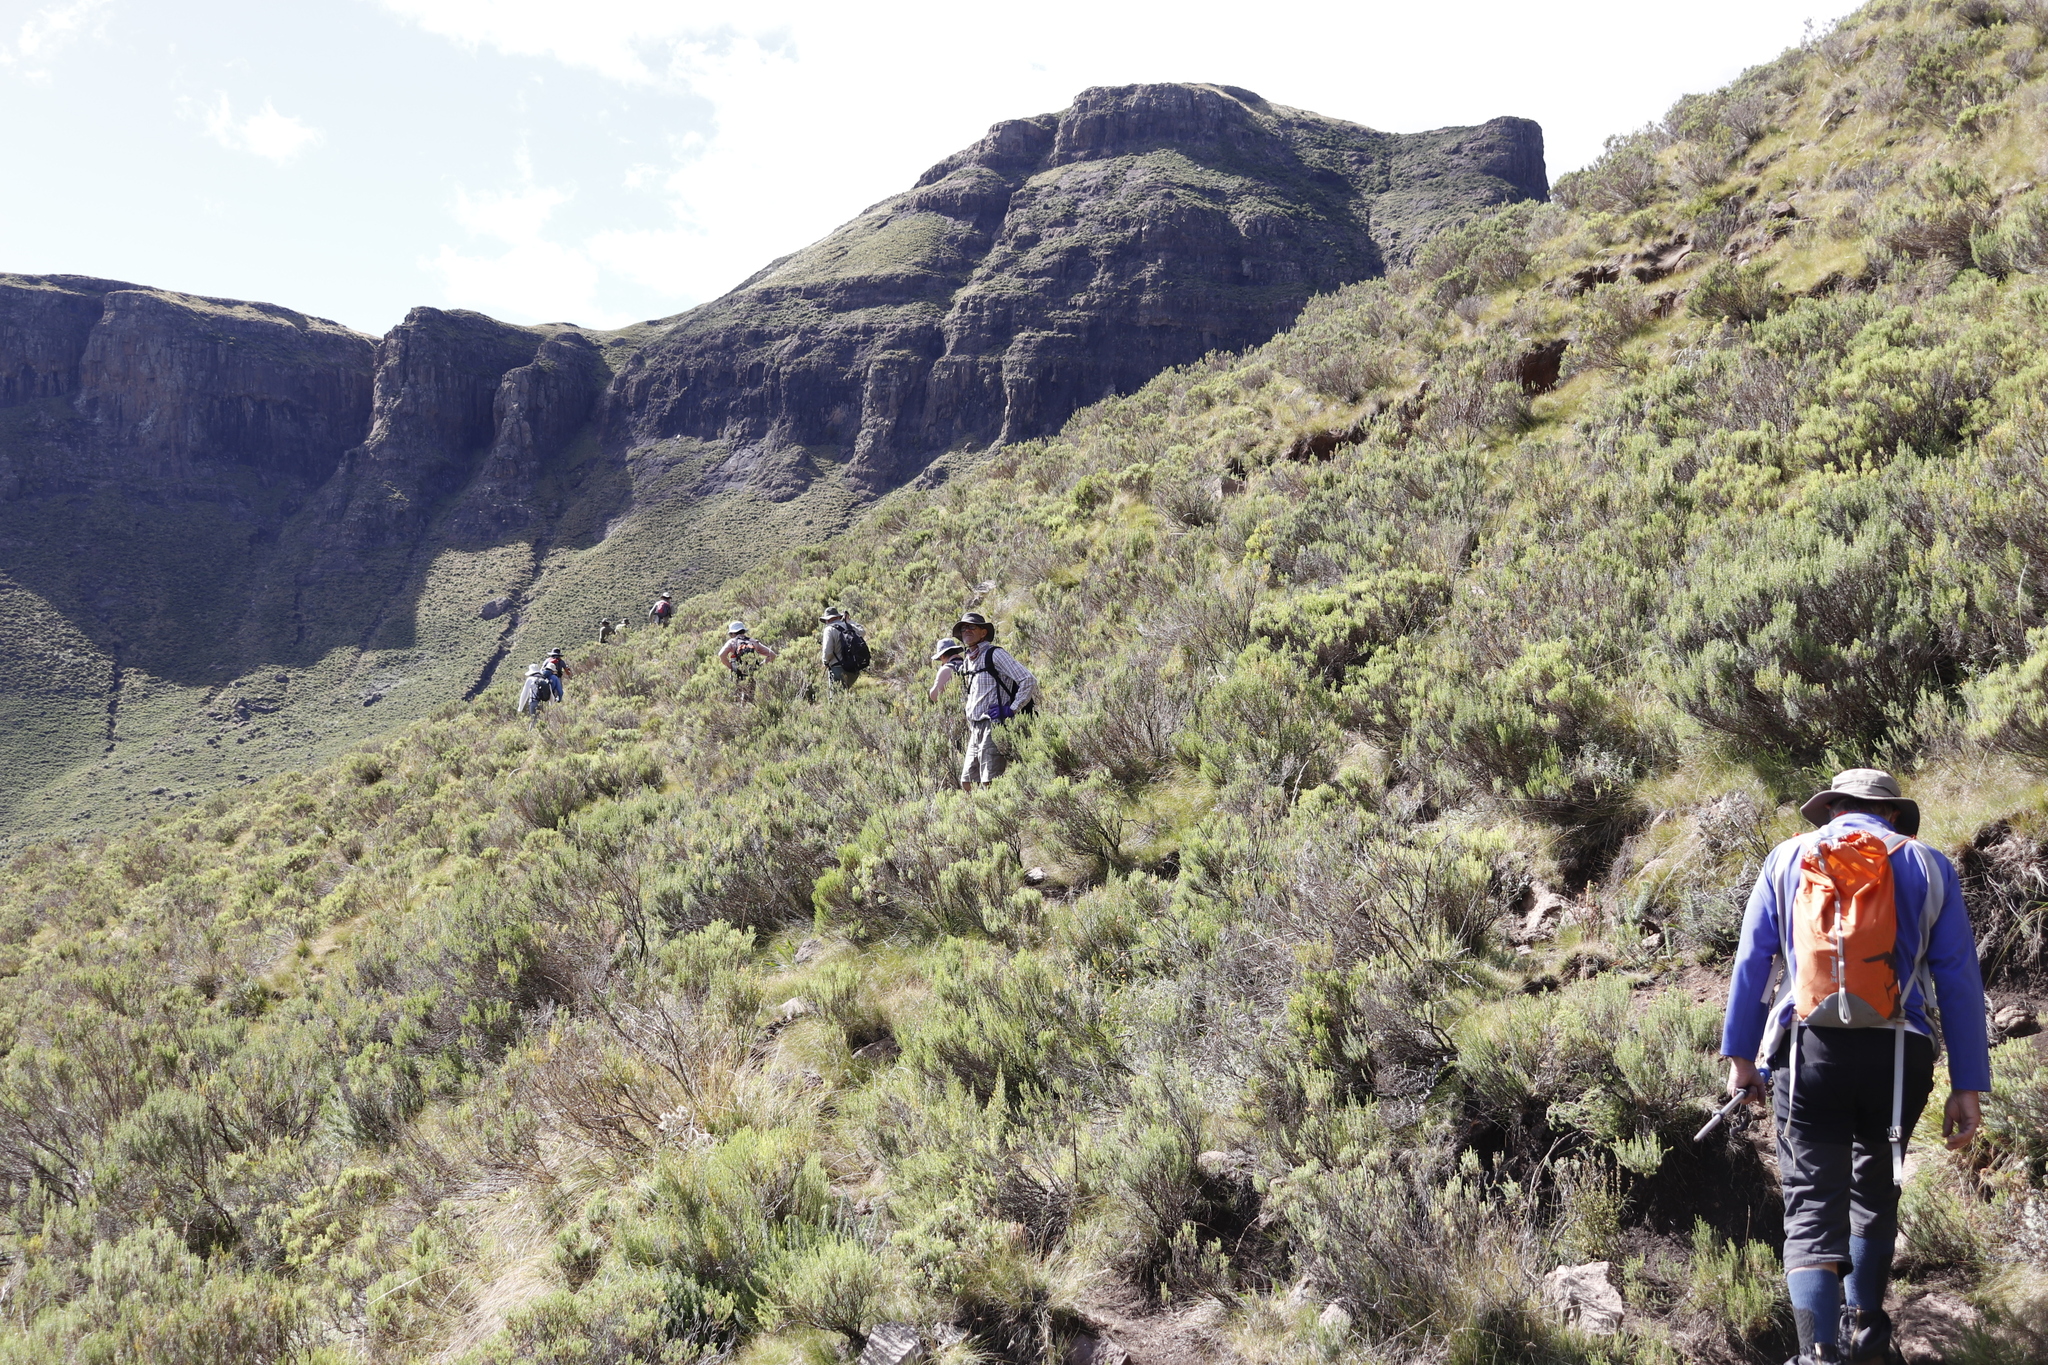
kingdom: Plantae
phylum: Tracheophyta
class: Magnoliopsida
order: Asterales
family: Asteraceae
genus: Dicerothamnus
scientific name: Dicerothamnus rhinocerotis
